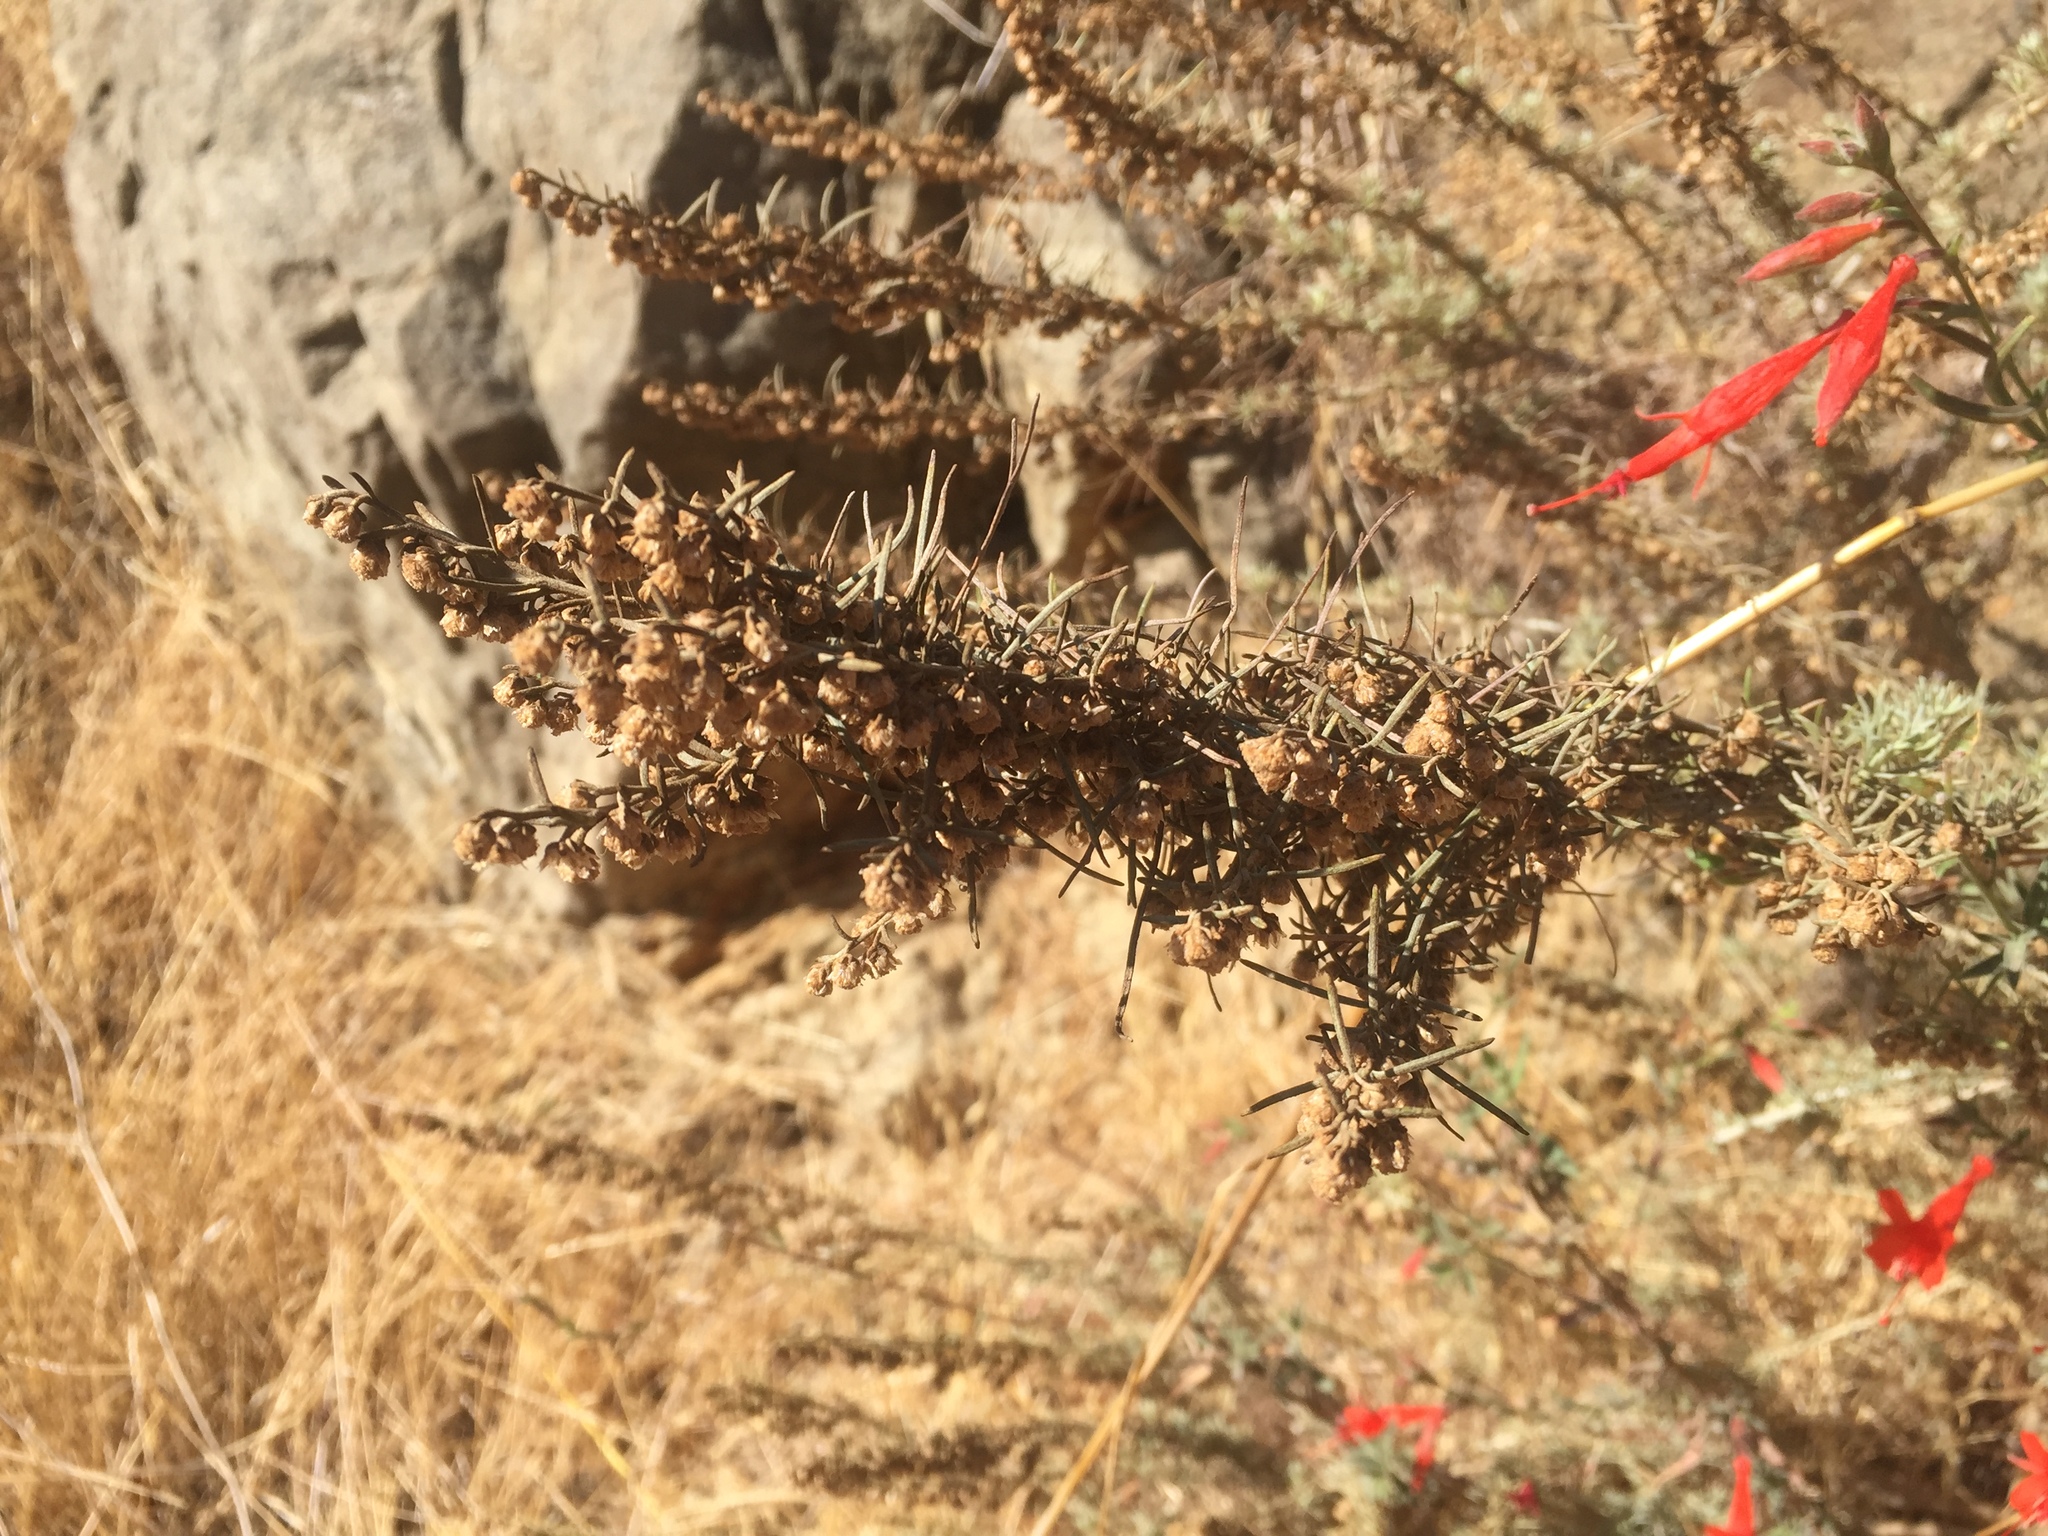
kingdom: Plantae
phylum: Tracheophyta
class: Magnoliopsida
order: Asterales
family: Asteraceae
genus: Artemisia
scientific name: Artemisia californica
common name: California sagebrush
